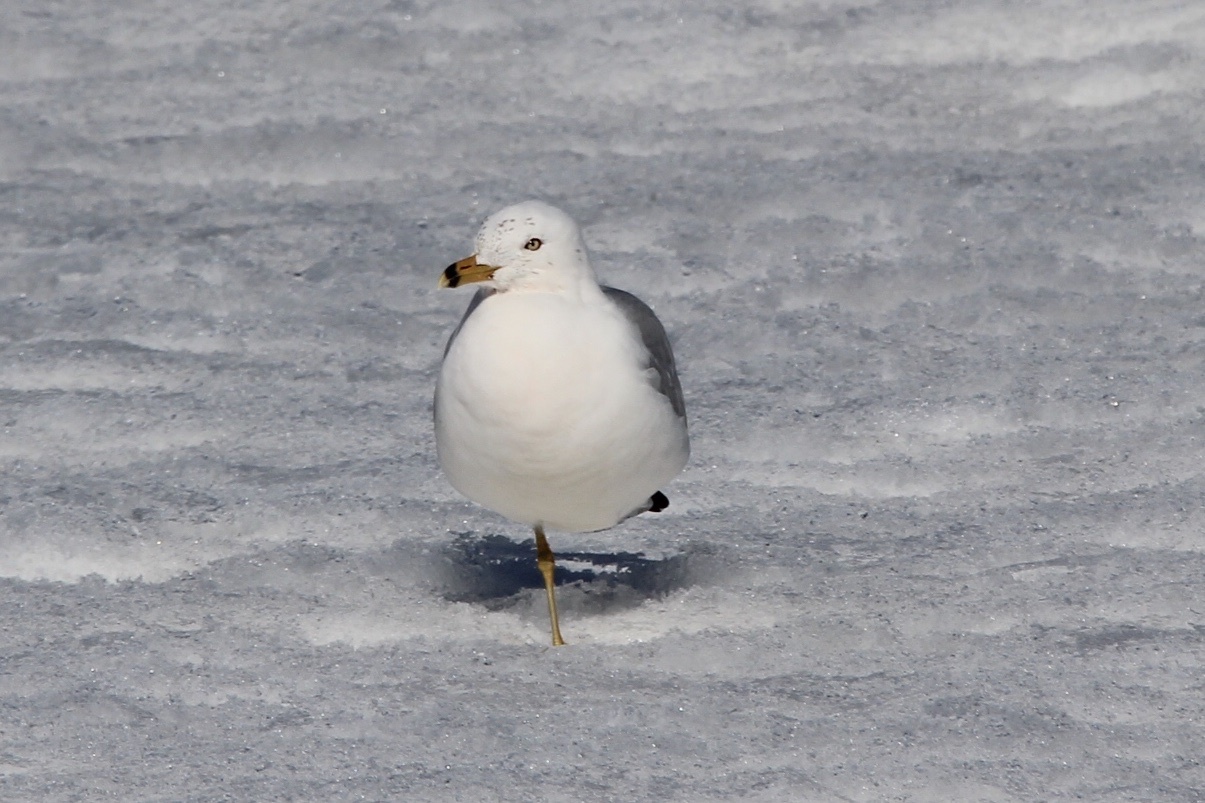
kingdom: Animalia
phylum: Chordata
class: Aves
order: Charadriiformes
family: Laridae
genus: Larus
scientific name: Larus delawarensis
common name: Ring-billed gull
